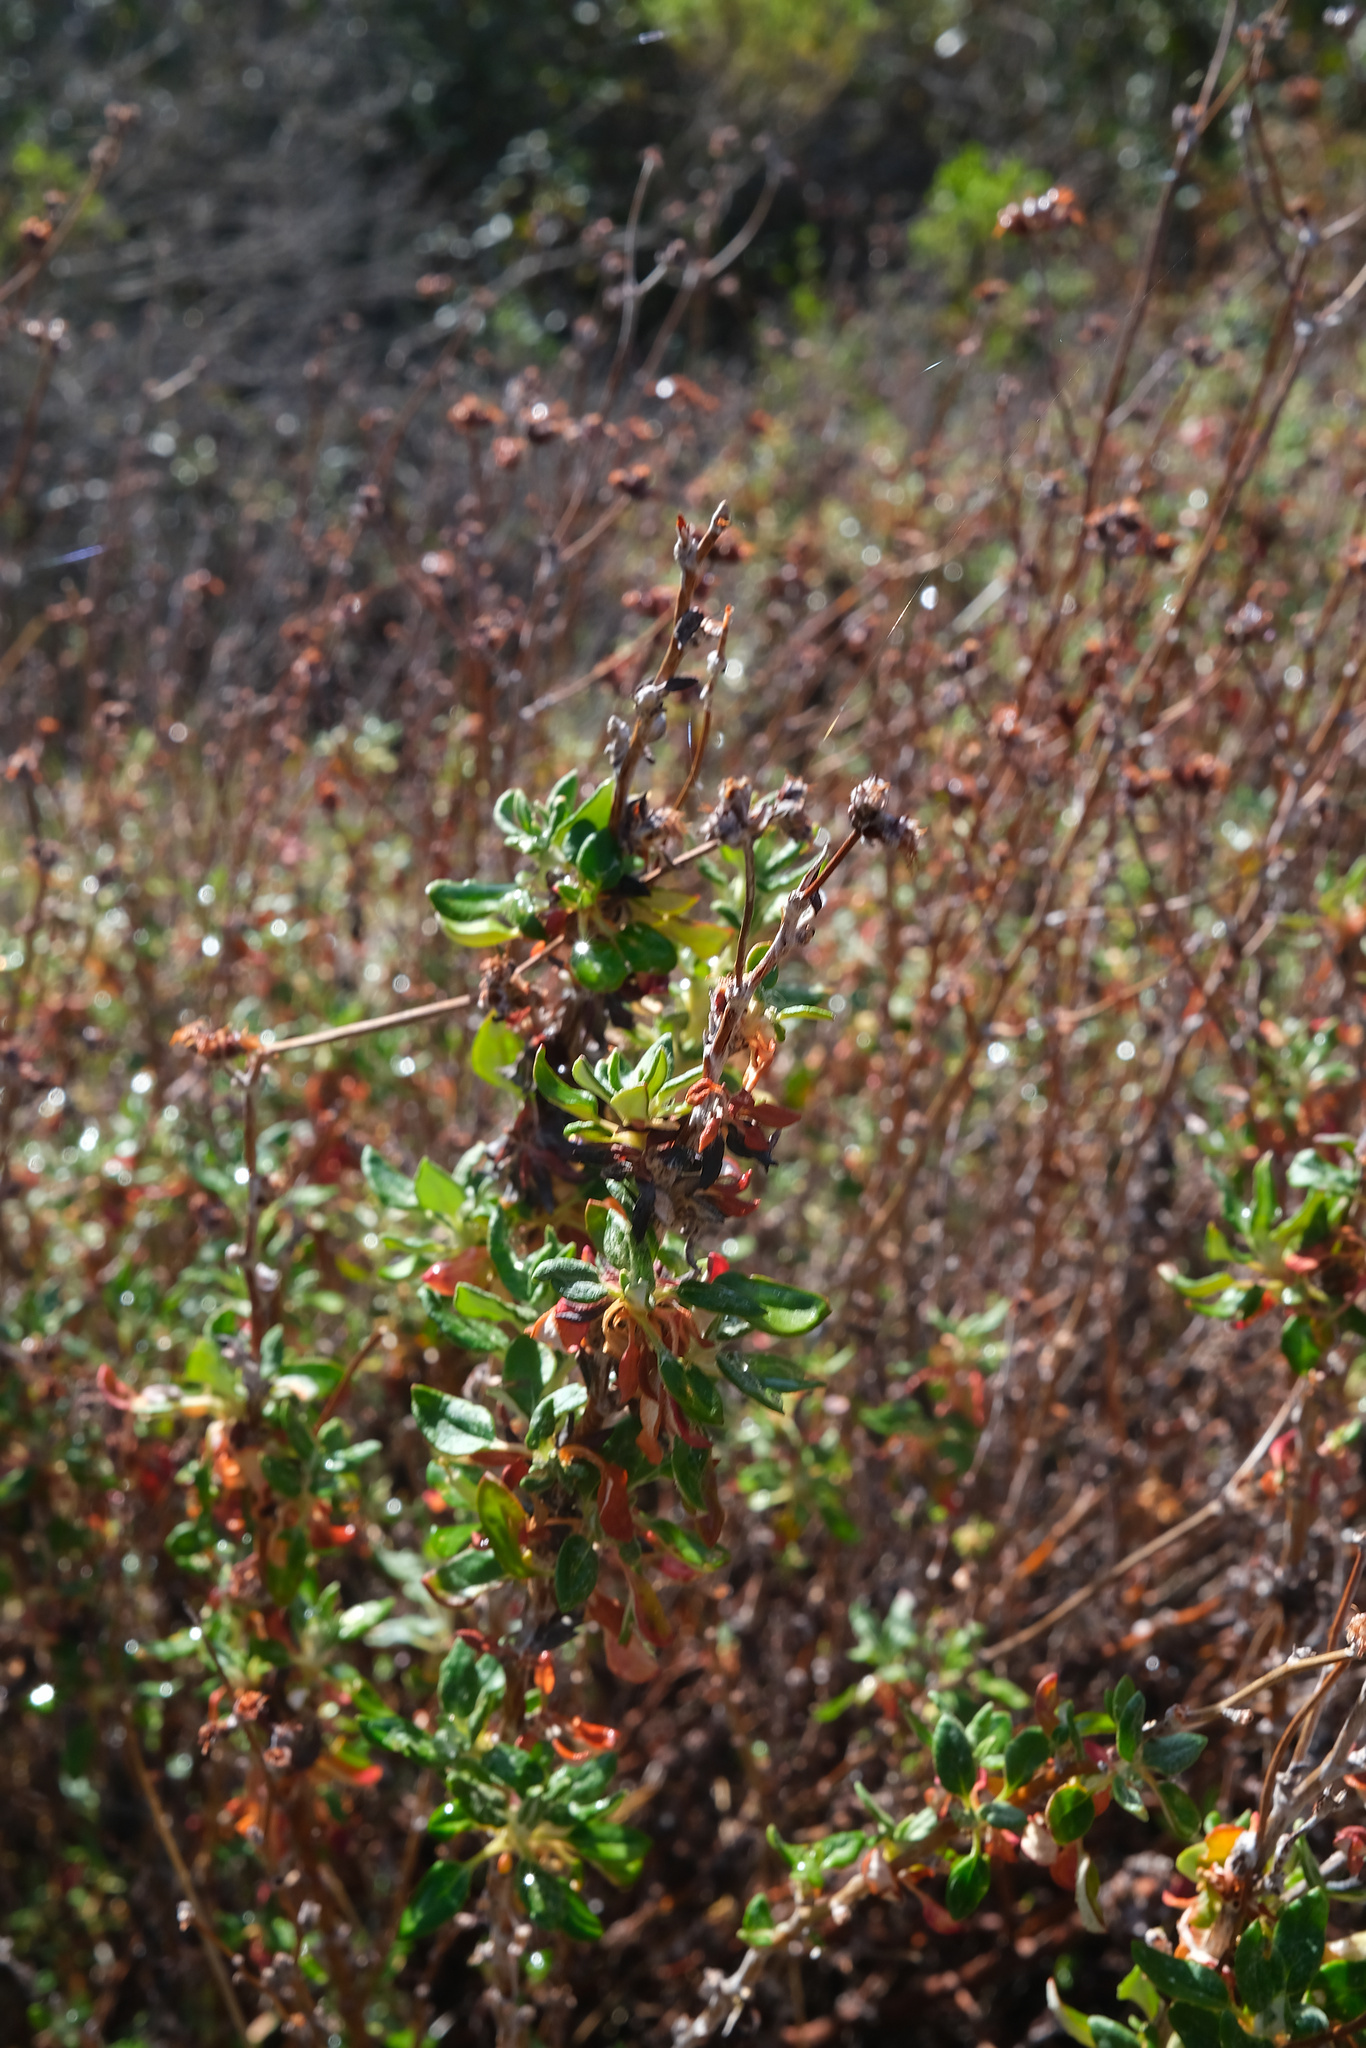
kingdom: Plantae
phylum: Tracheophyta
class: Magnoliopsida
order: Caryophyllales
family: Polygonaceae
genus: Eriogonum
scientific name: Eriogonum parvifolium
